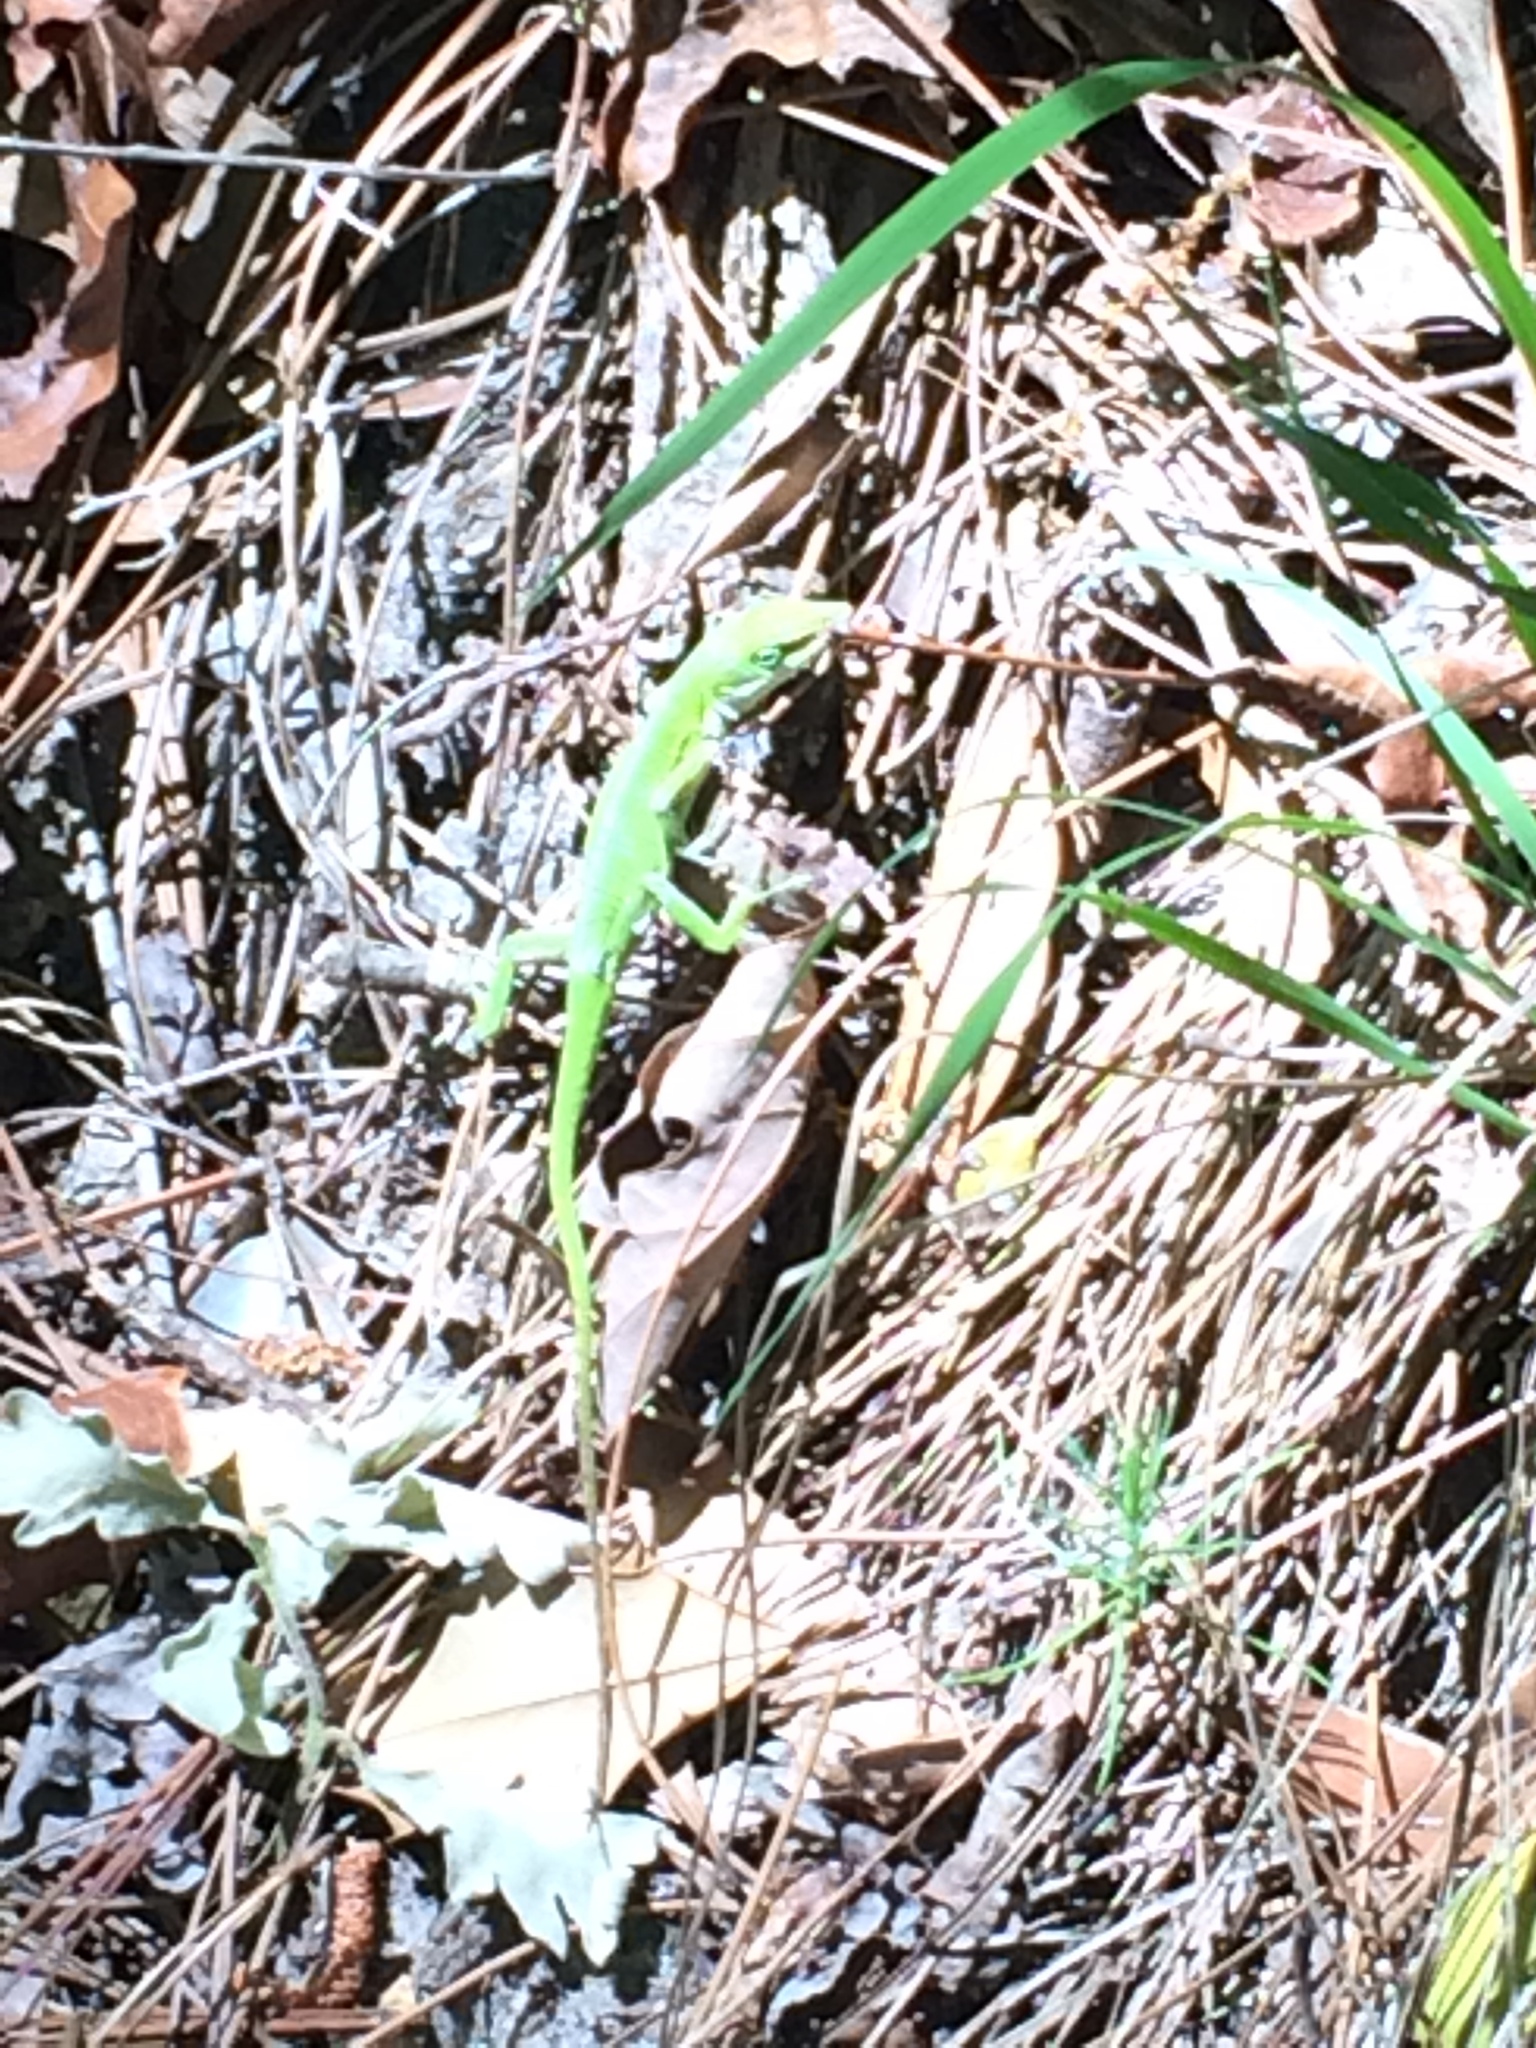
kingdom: Animalia
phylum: Chordata
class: Squamata
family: Dactyloidae
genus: Anolis
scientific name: Anolis carolinensis
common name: Green anole
